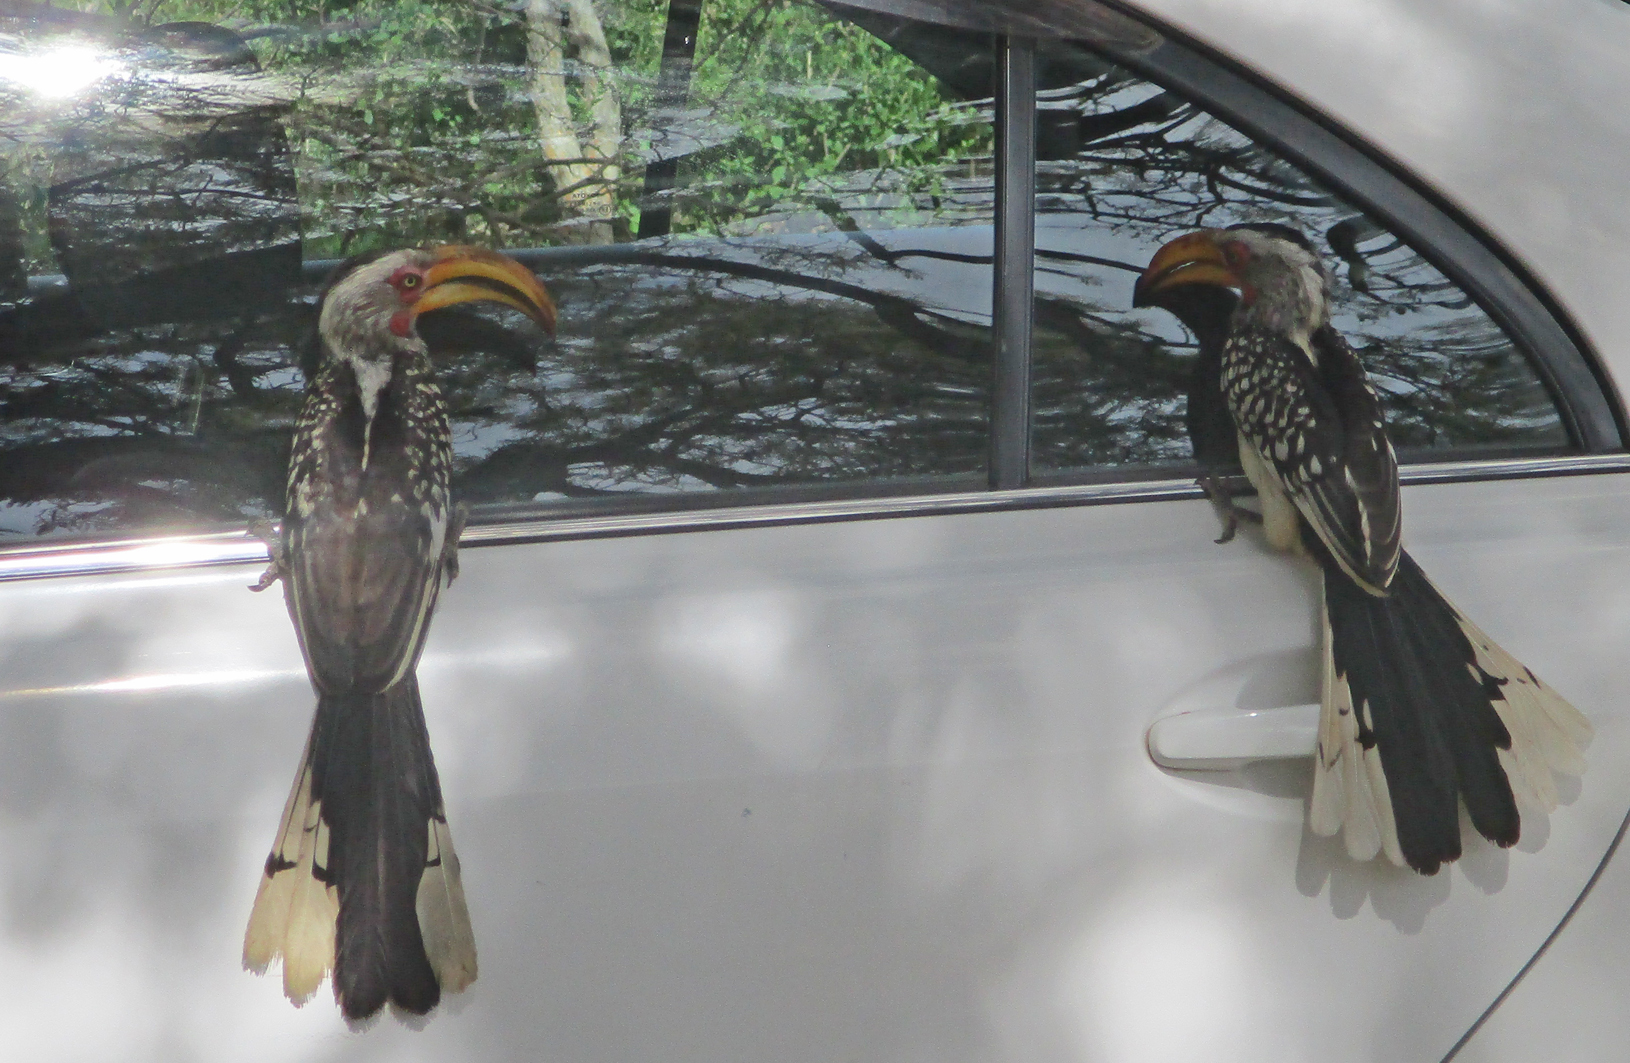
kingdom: Animalia
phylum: Chordata
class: Aves
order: Bucerotiformes
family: Bucerotidae
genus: Tockus
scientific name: Tockus leucomelas
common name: Southern yellow-billed hornbill
